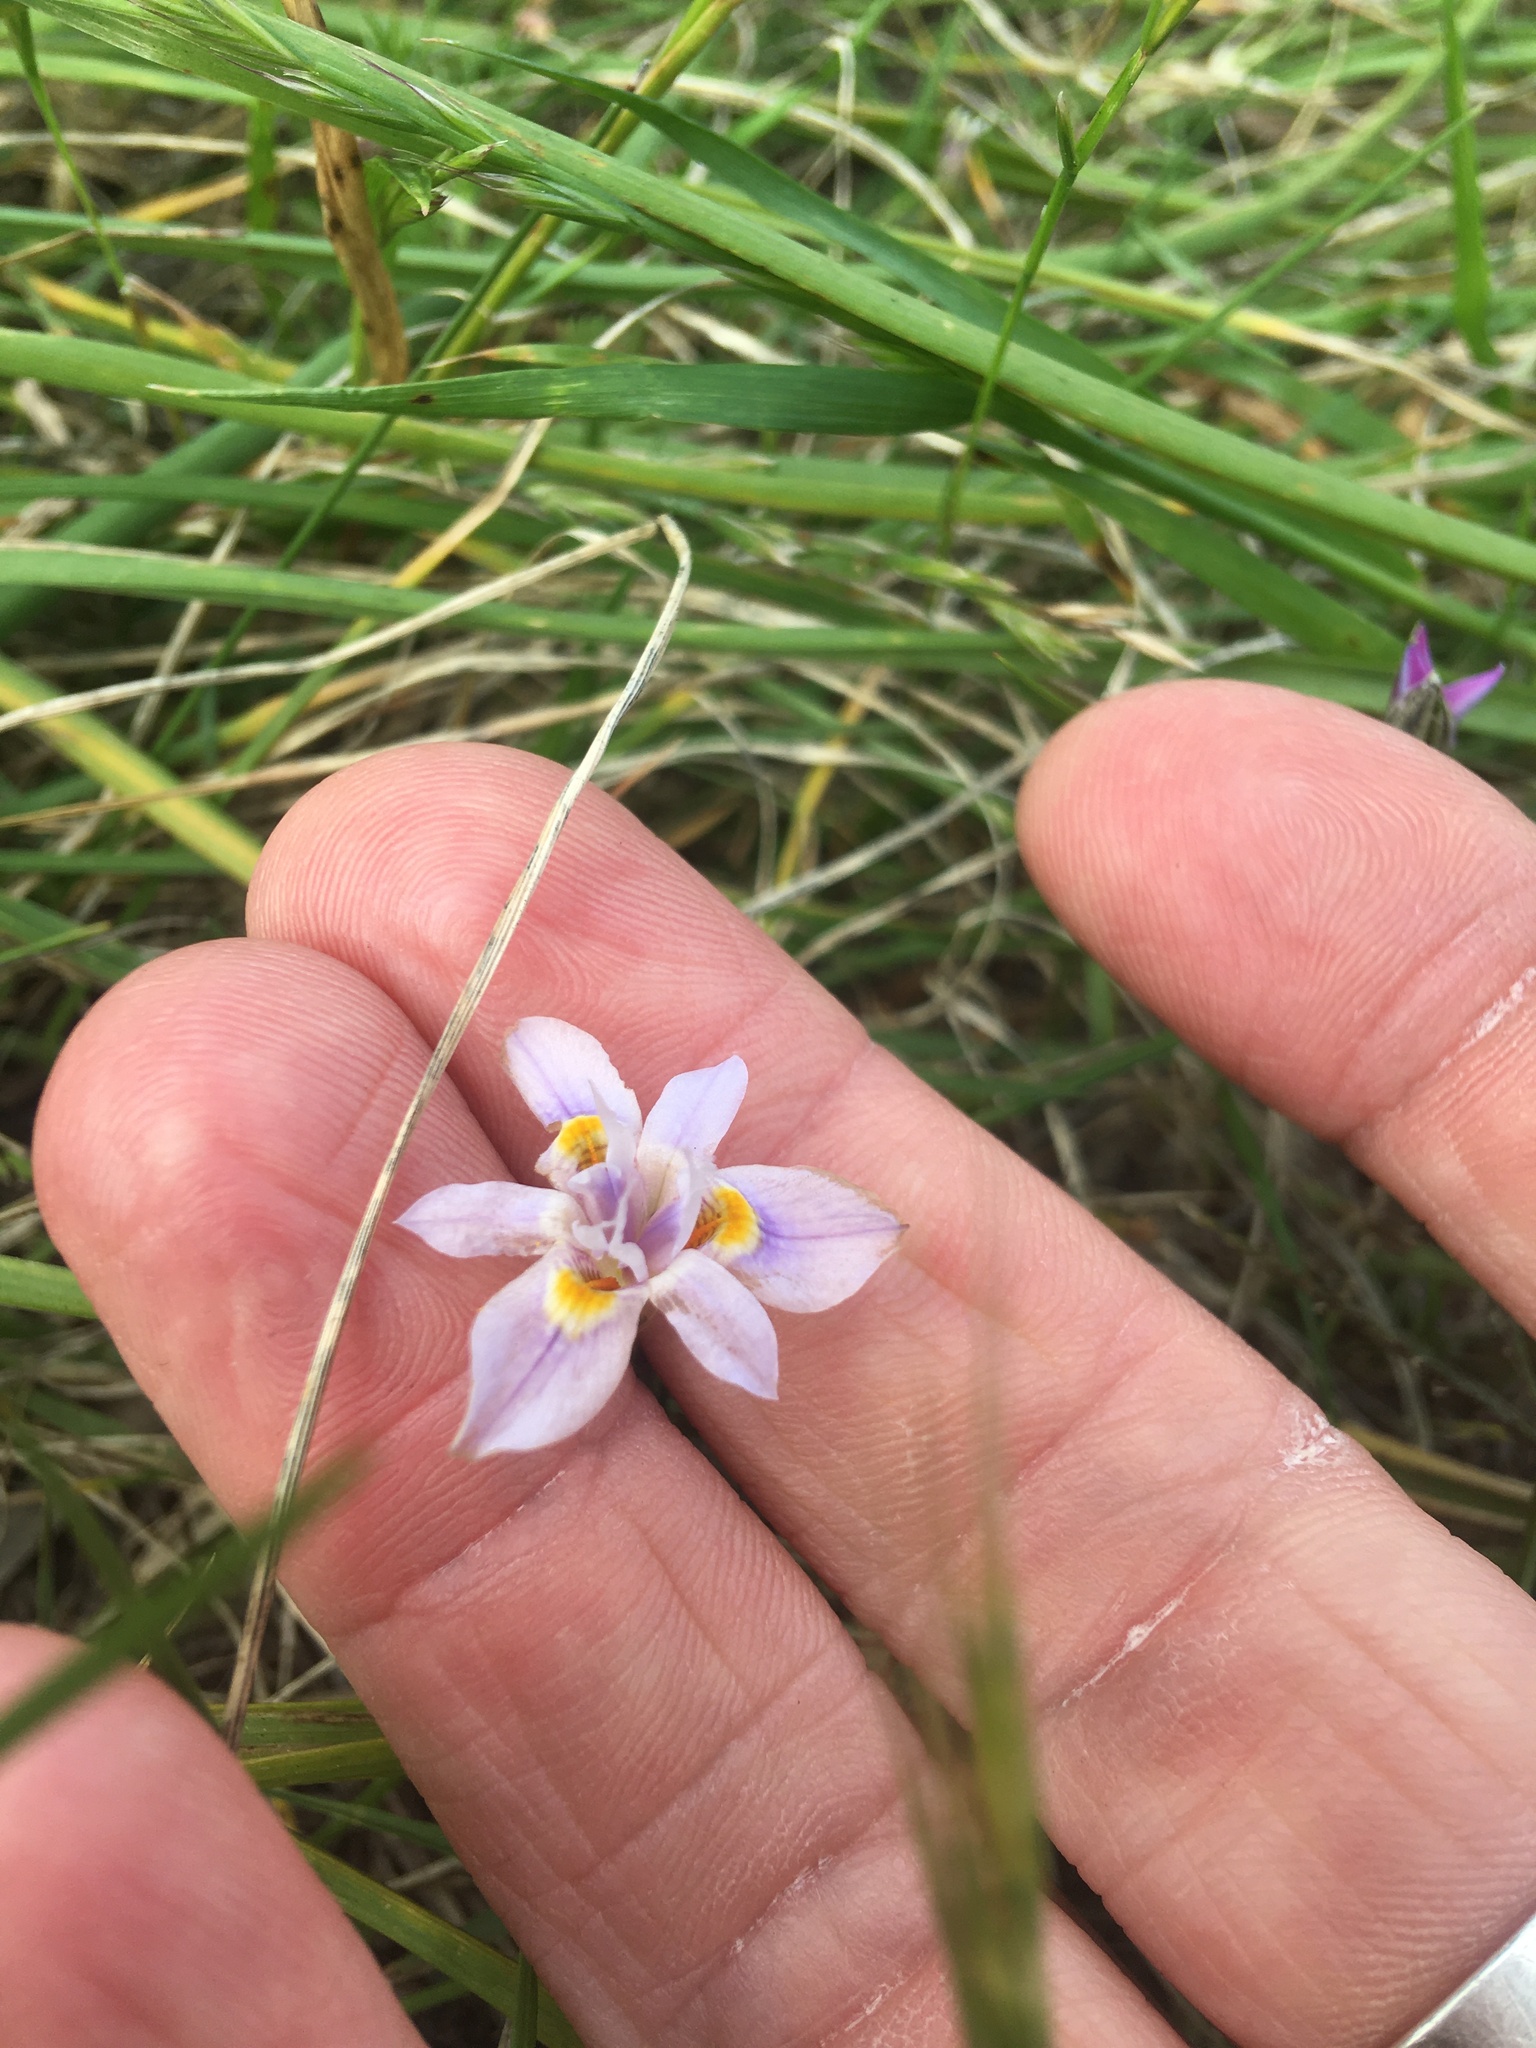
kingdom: Plantae
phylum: Tracheophyta
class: Liliopsida
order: Asparagales
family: Iridaceae
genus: Moraea
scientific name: Moraea setifolia
